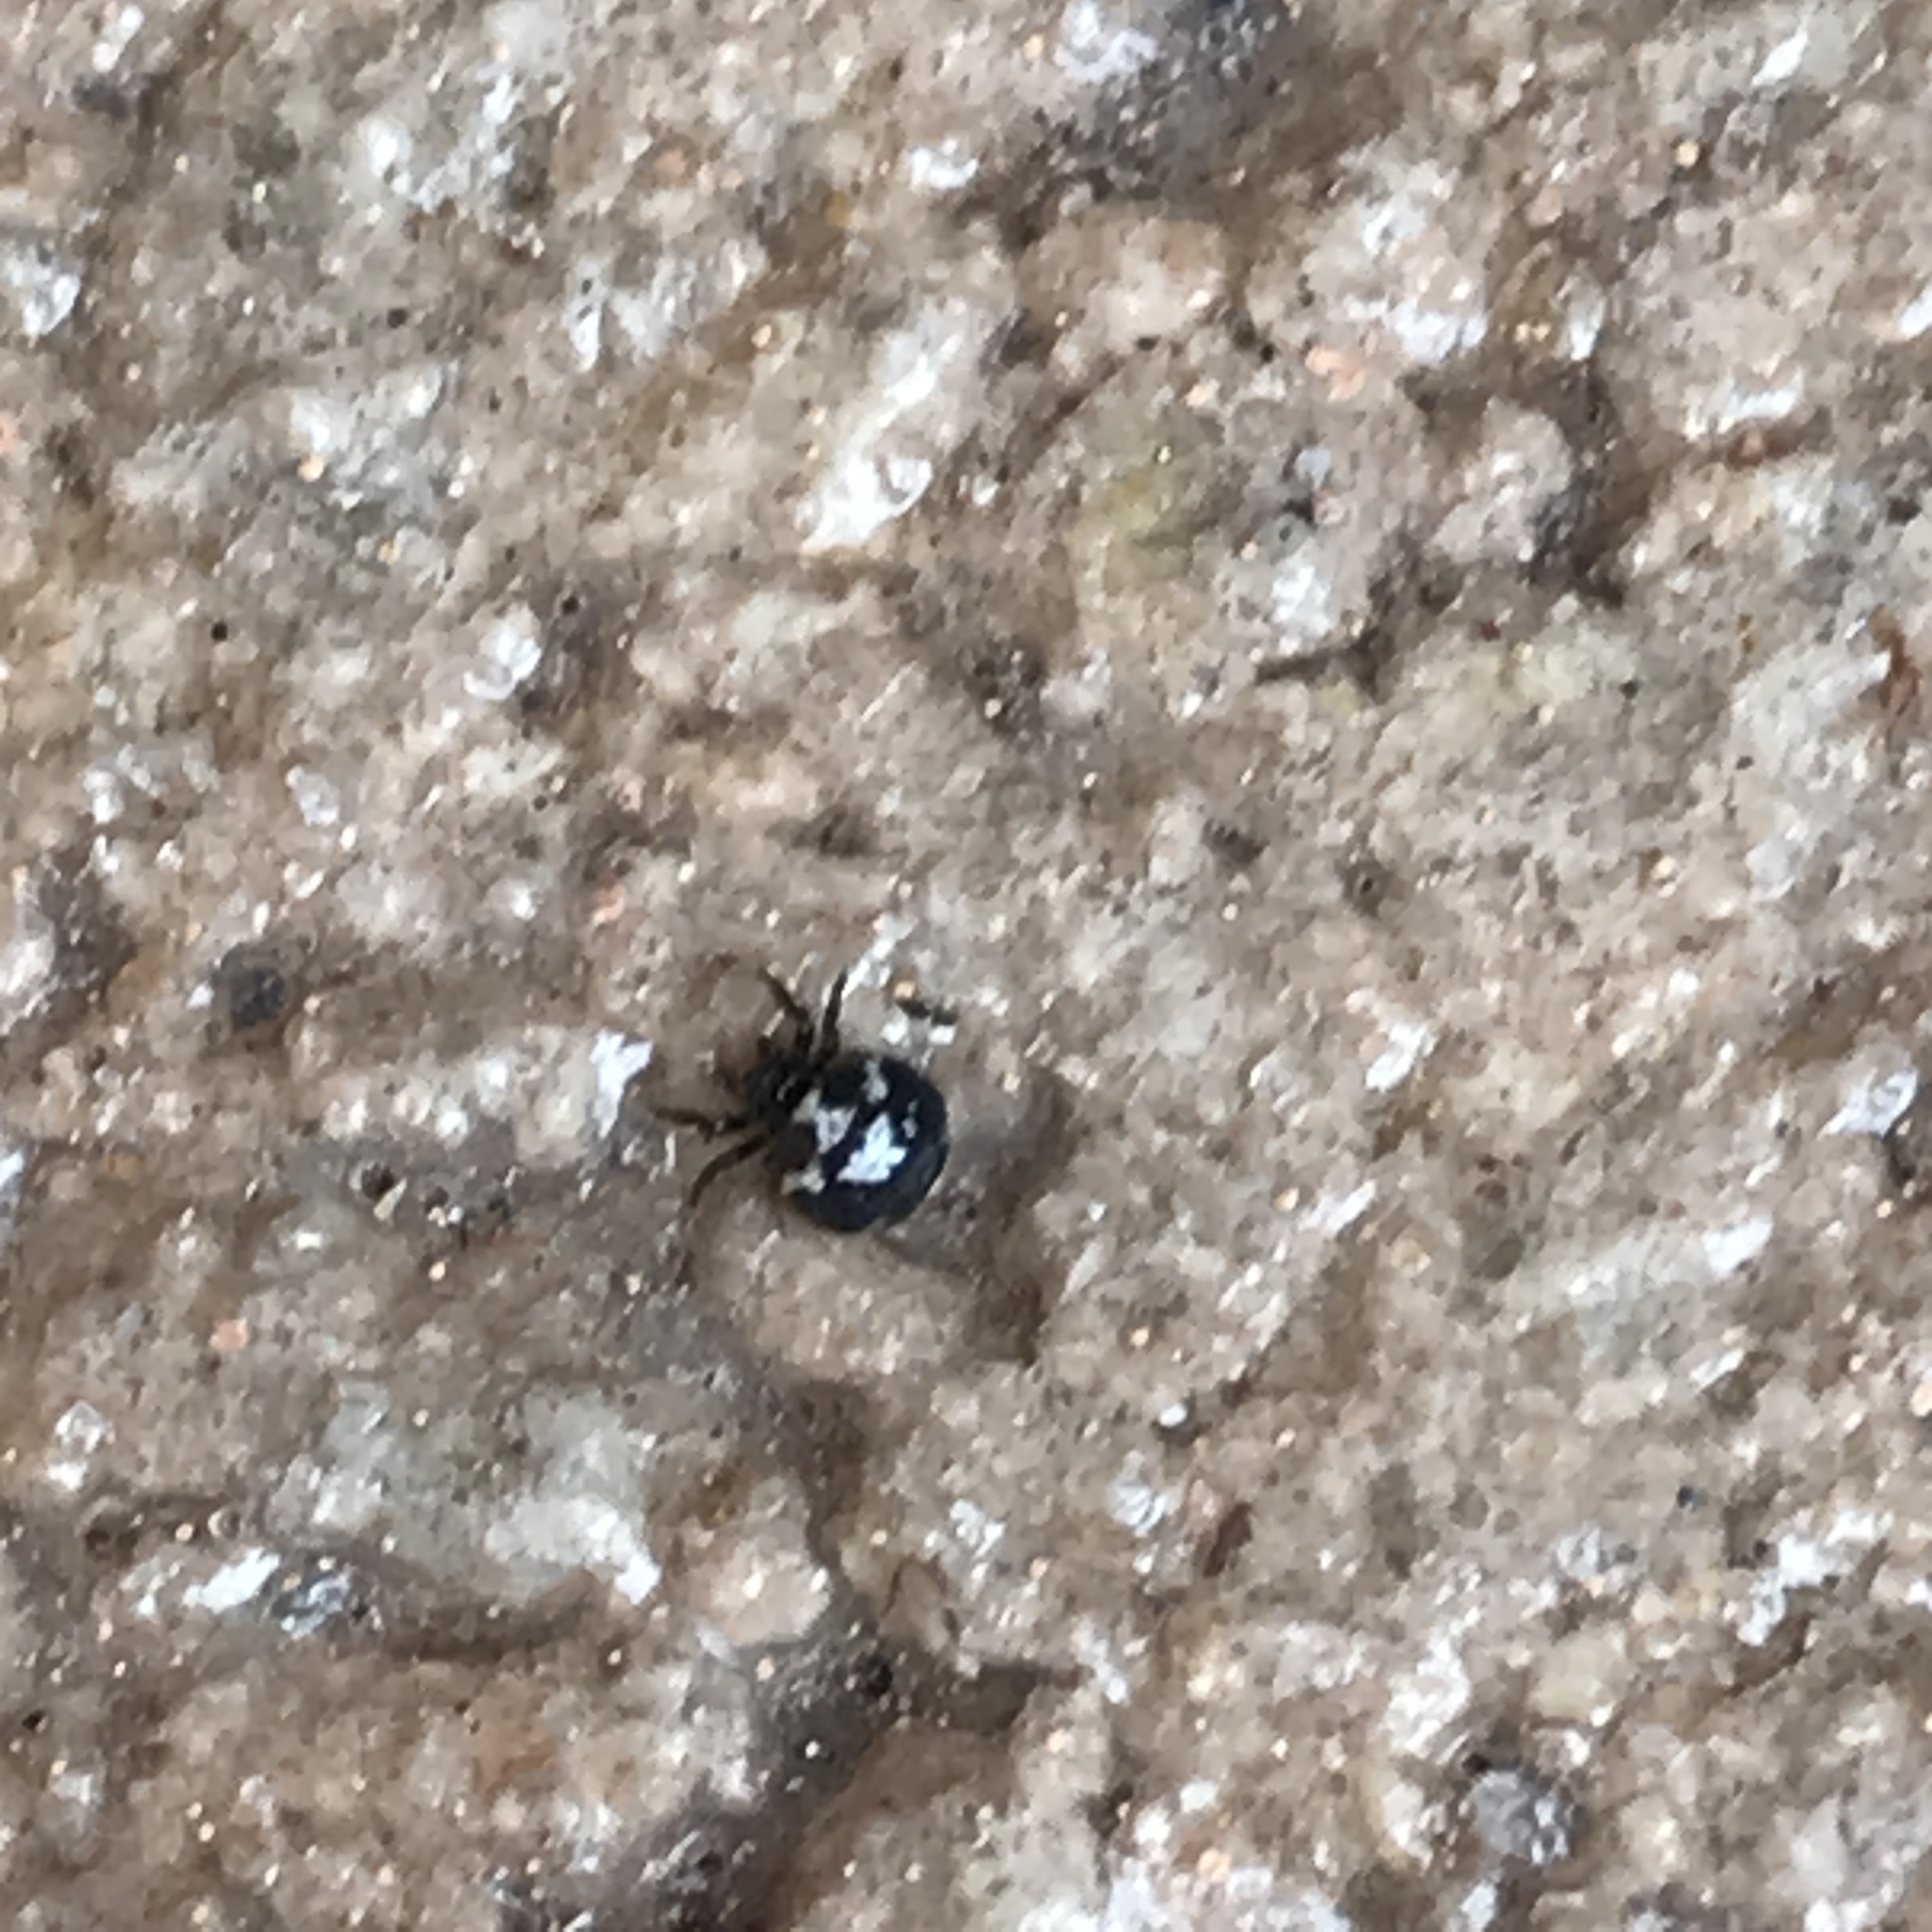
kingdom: Animalia
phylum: Arthropoda
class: Arachnida
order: Araneae
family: Araneidae
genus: Gasteracantha
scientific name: Gasteracantha cancriformis
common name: Orb weavers
